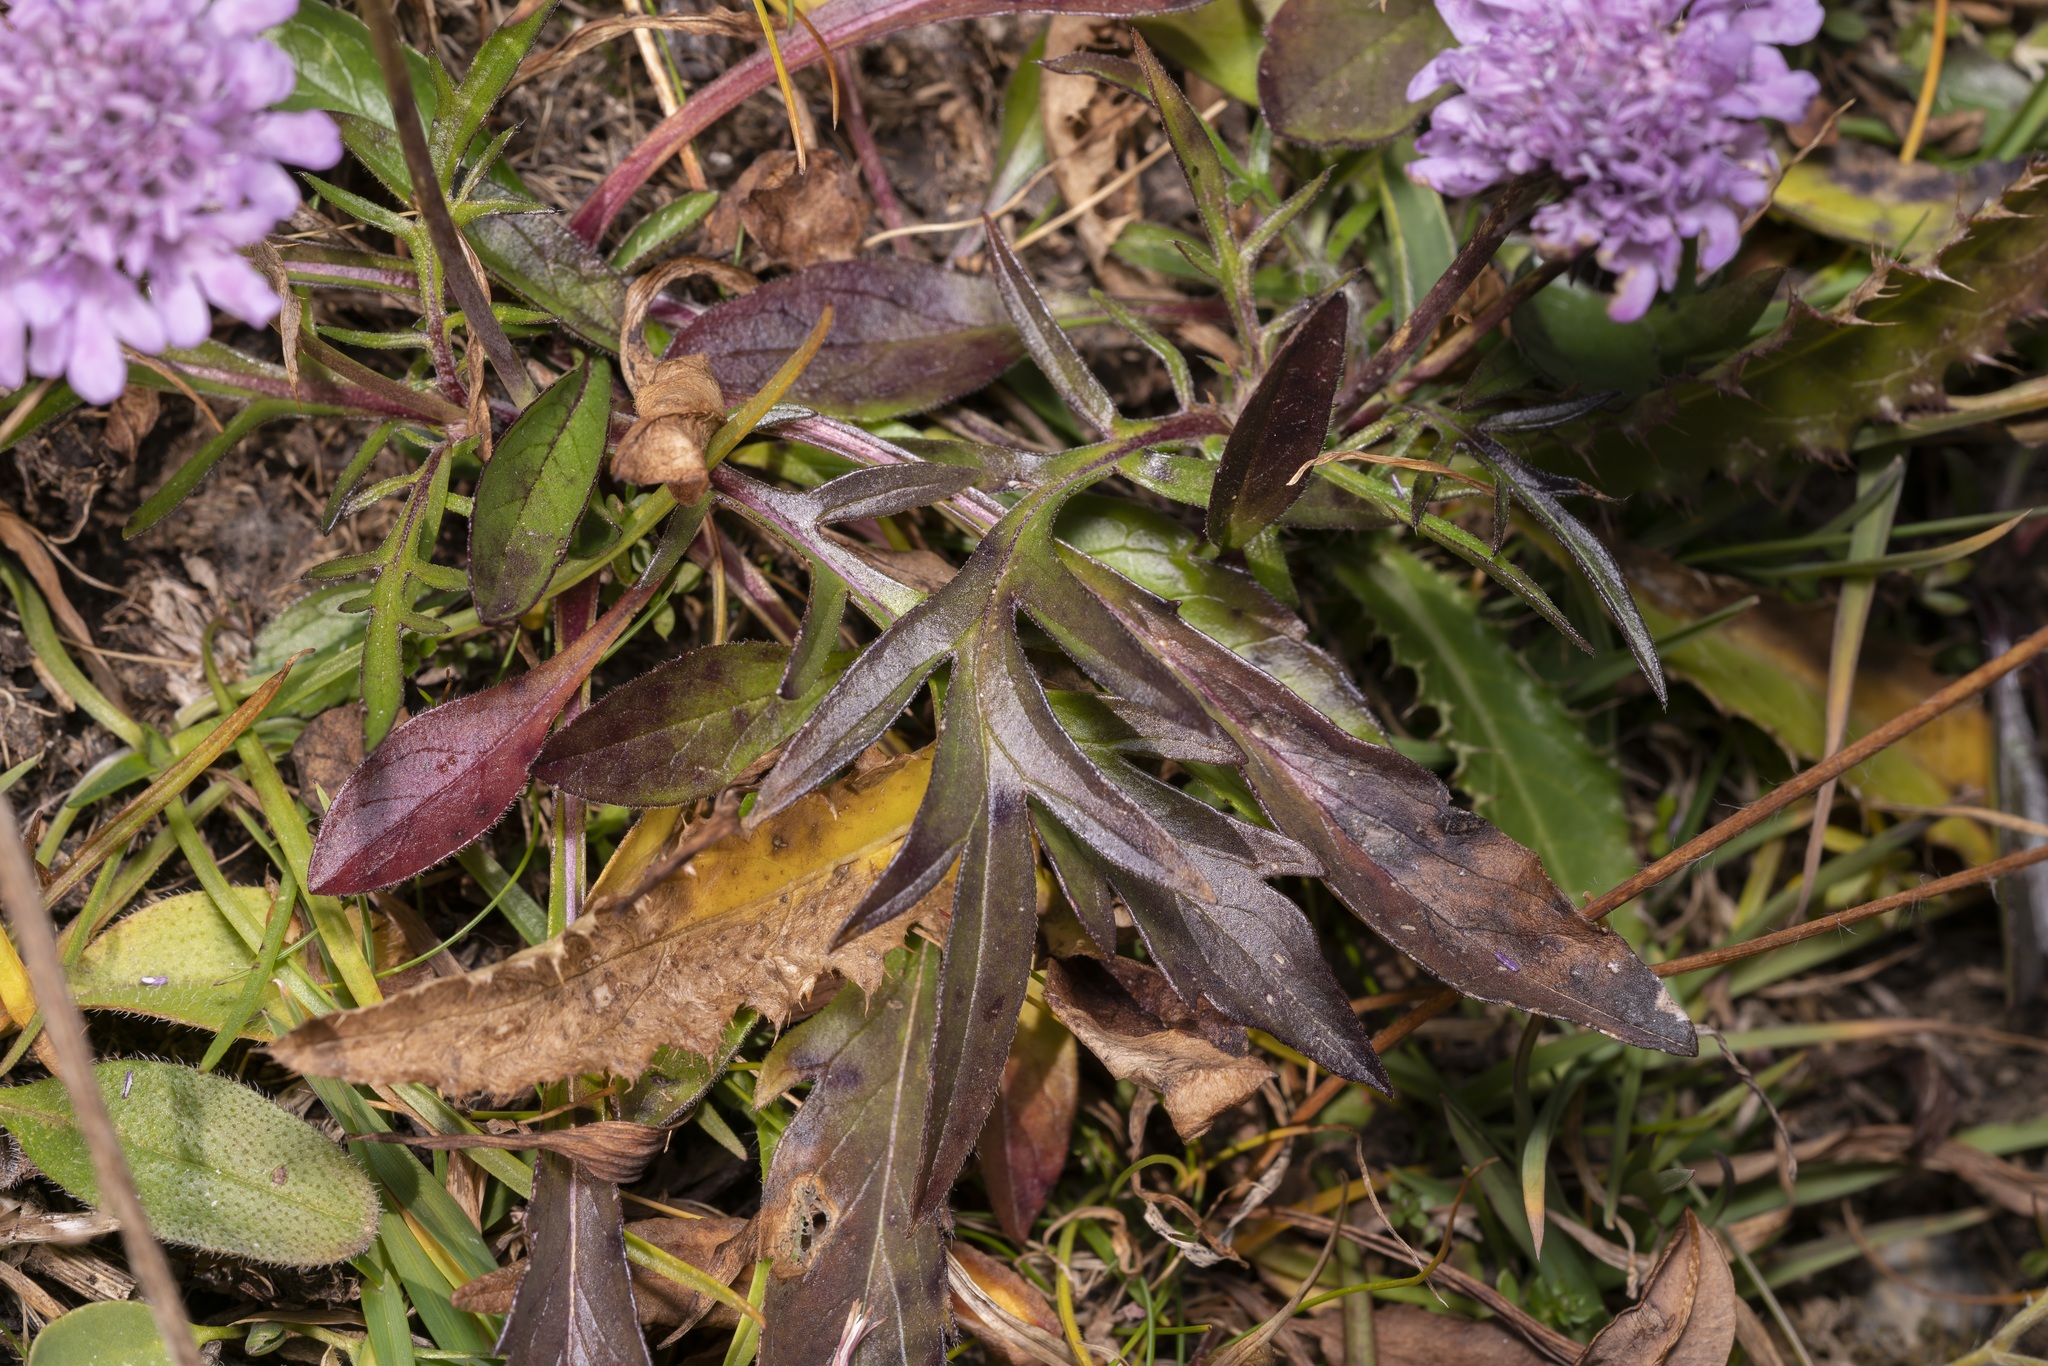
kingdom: Plantae
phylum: Tracheophyta
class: Magnoliopsida
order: Dipsacales
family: Caprifoliaceae
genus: Scabiosa
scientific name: Scabiosa lucida
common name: Shining scabious
